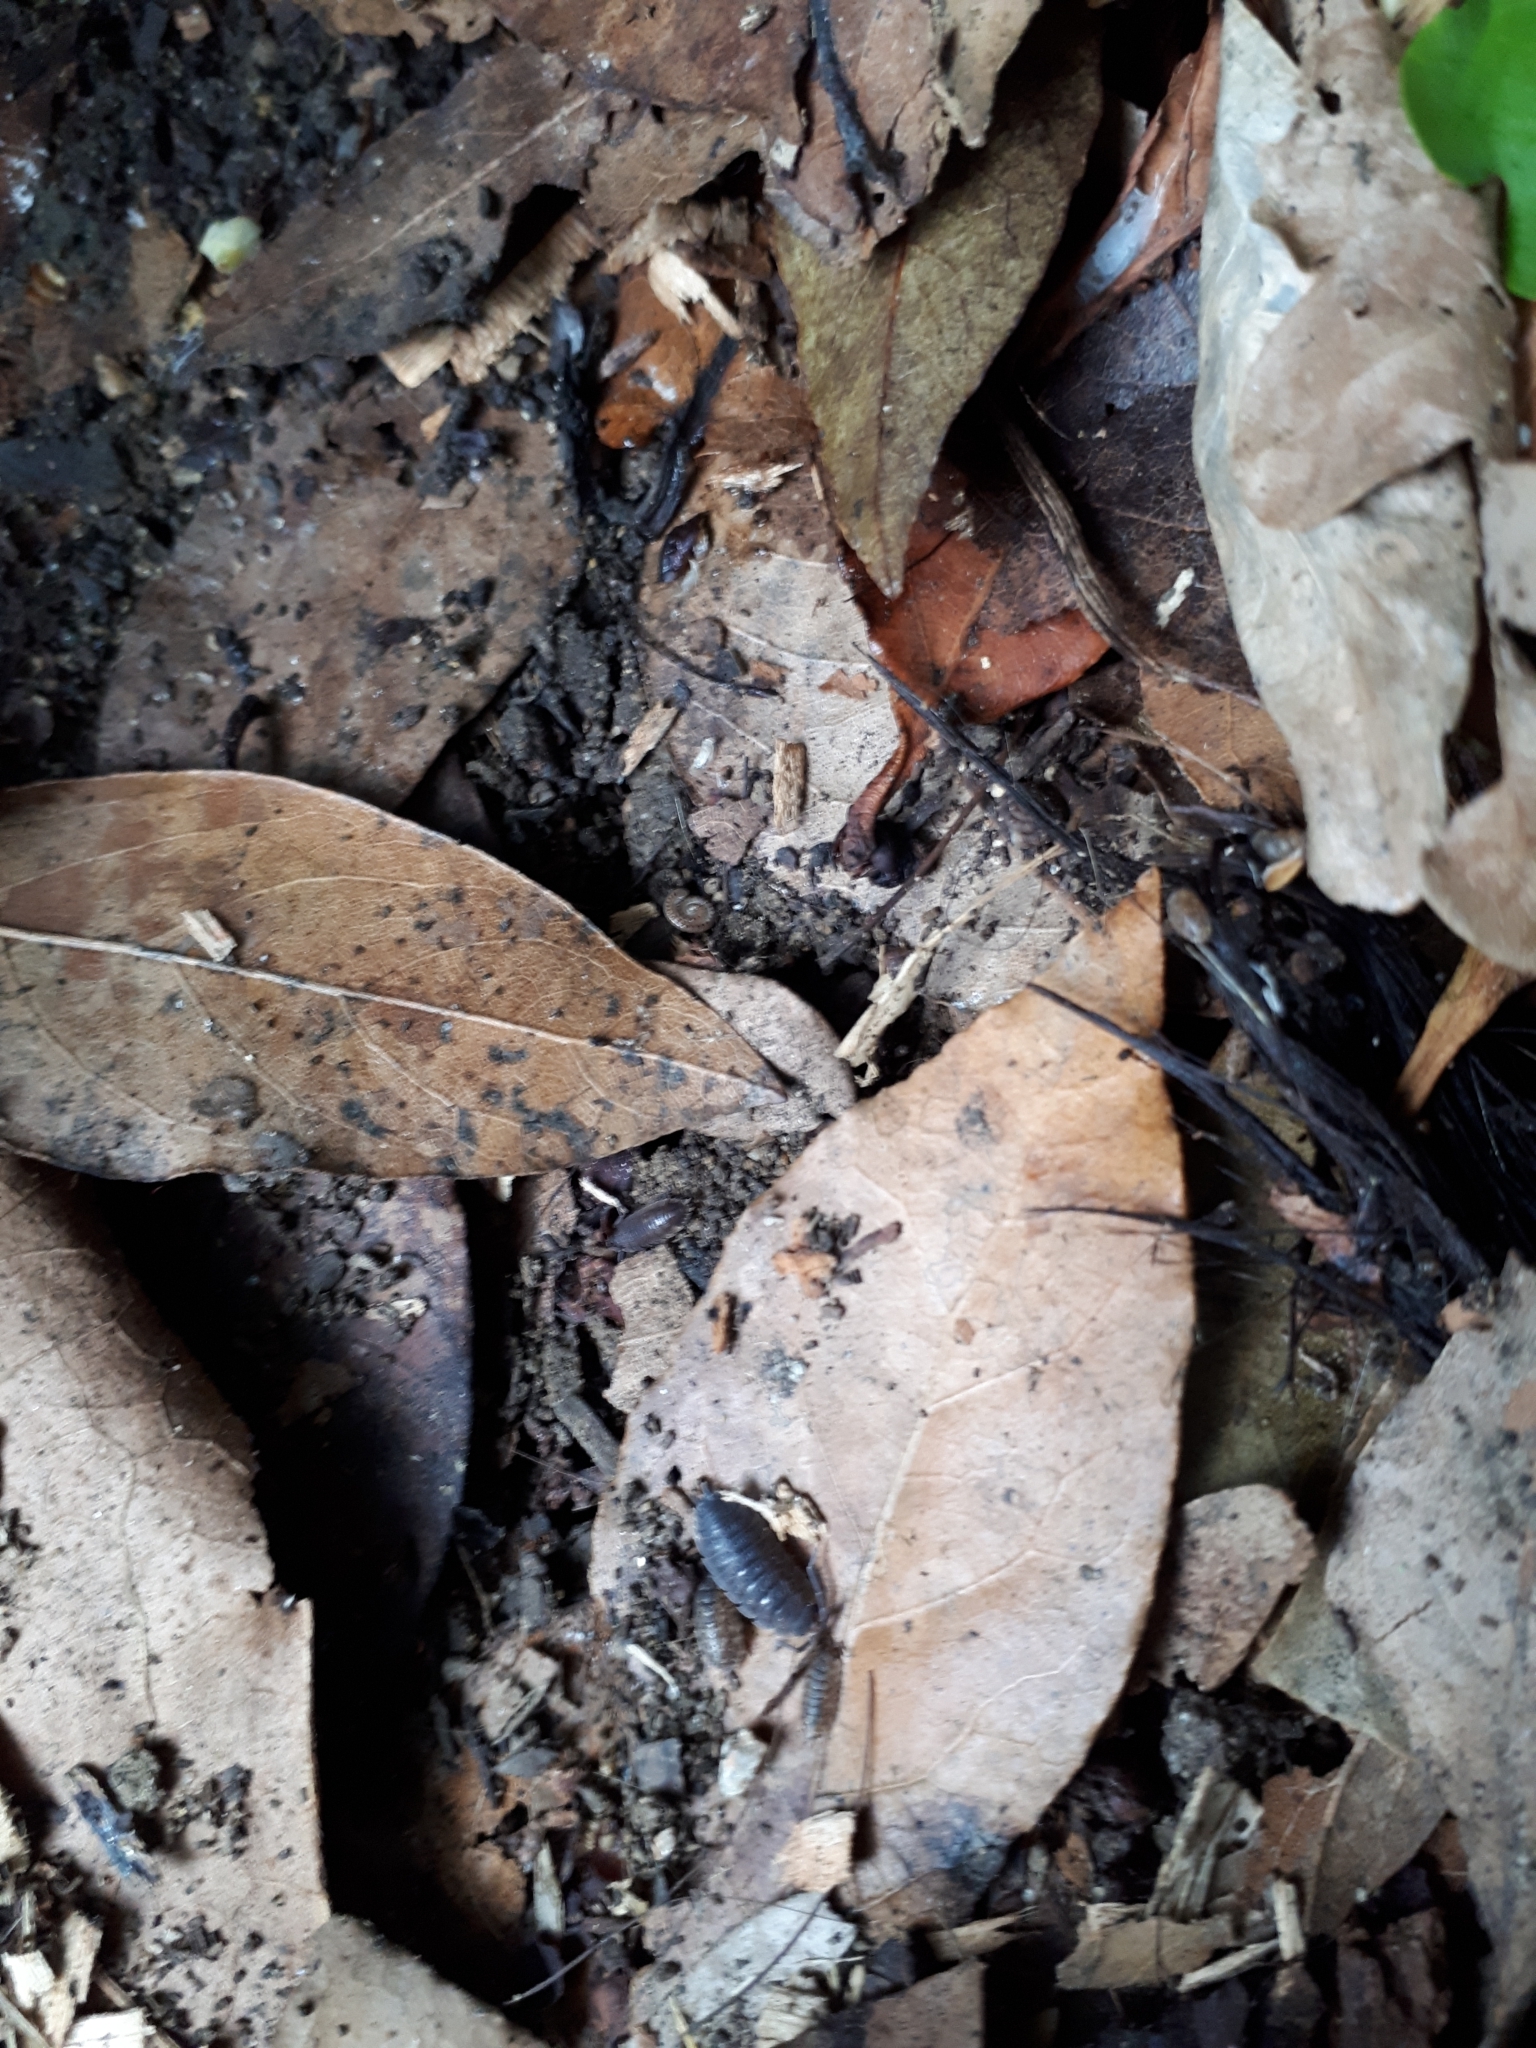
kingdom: Animalia
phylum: Arthropoda
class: Malacostraca
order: Isopoda
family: Porcellionidae
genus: Porcellio
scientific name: Porcellio scaber
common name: Common rough woodlouse
